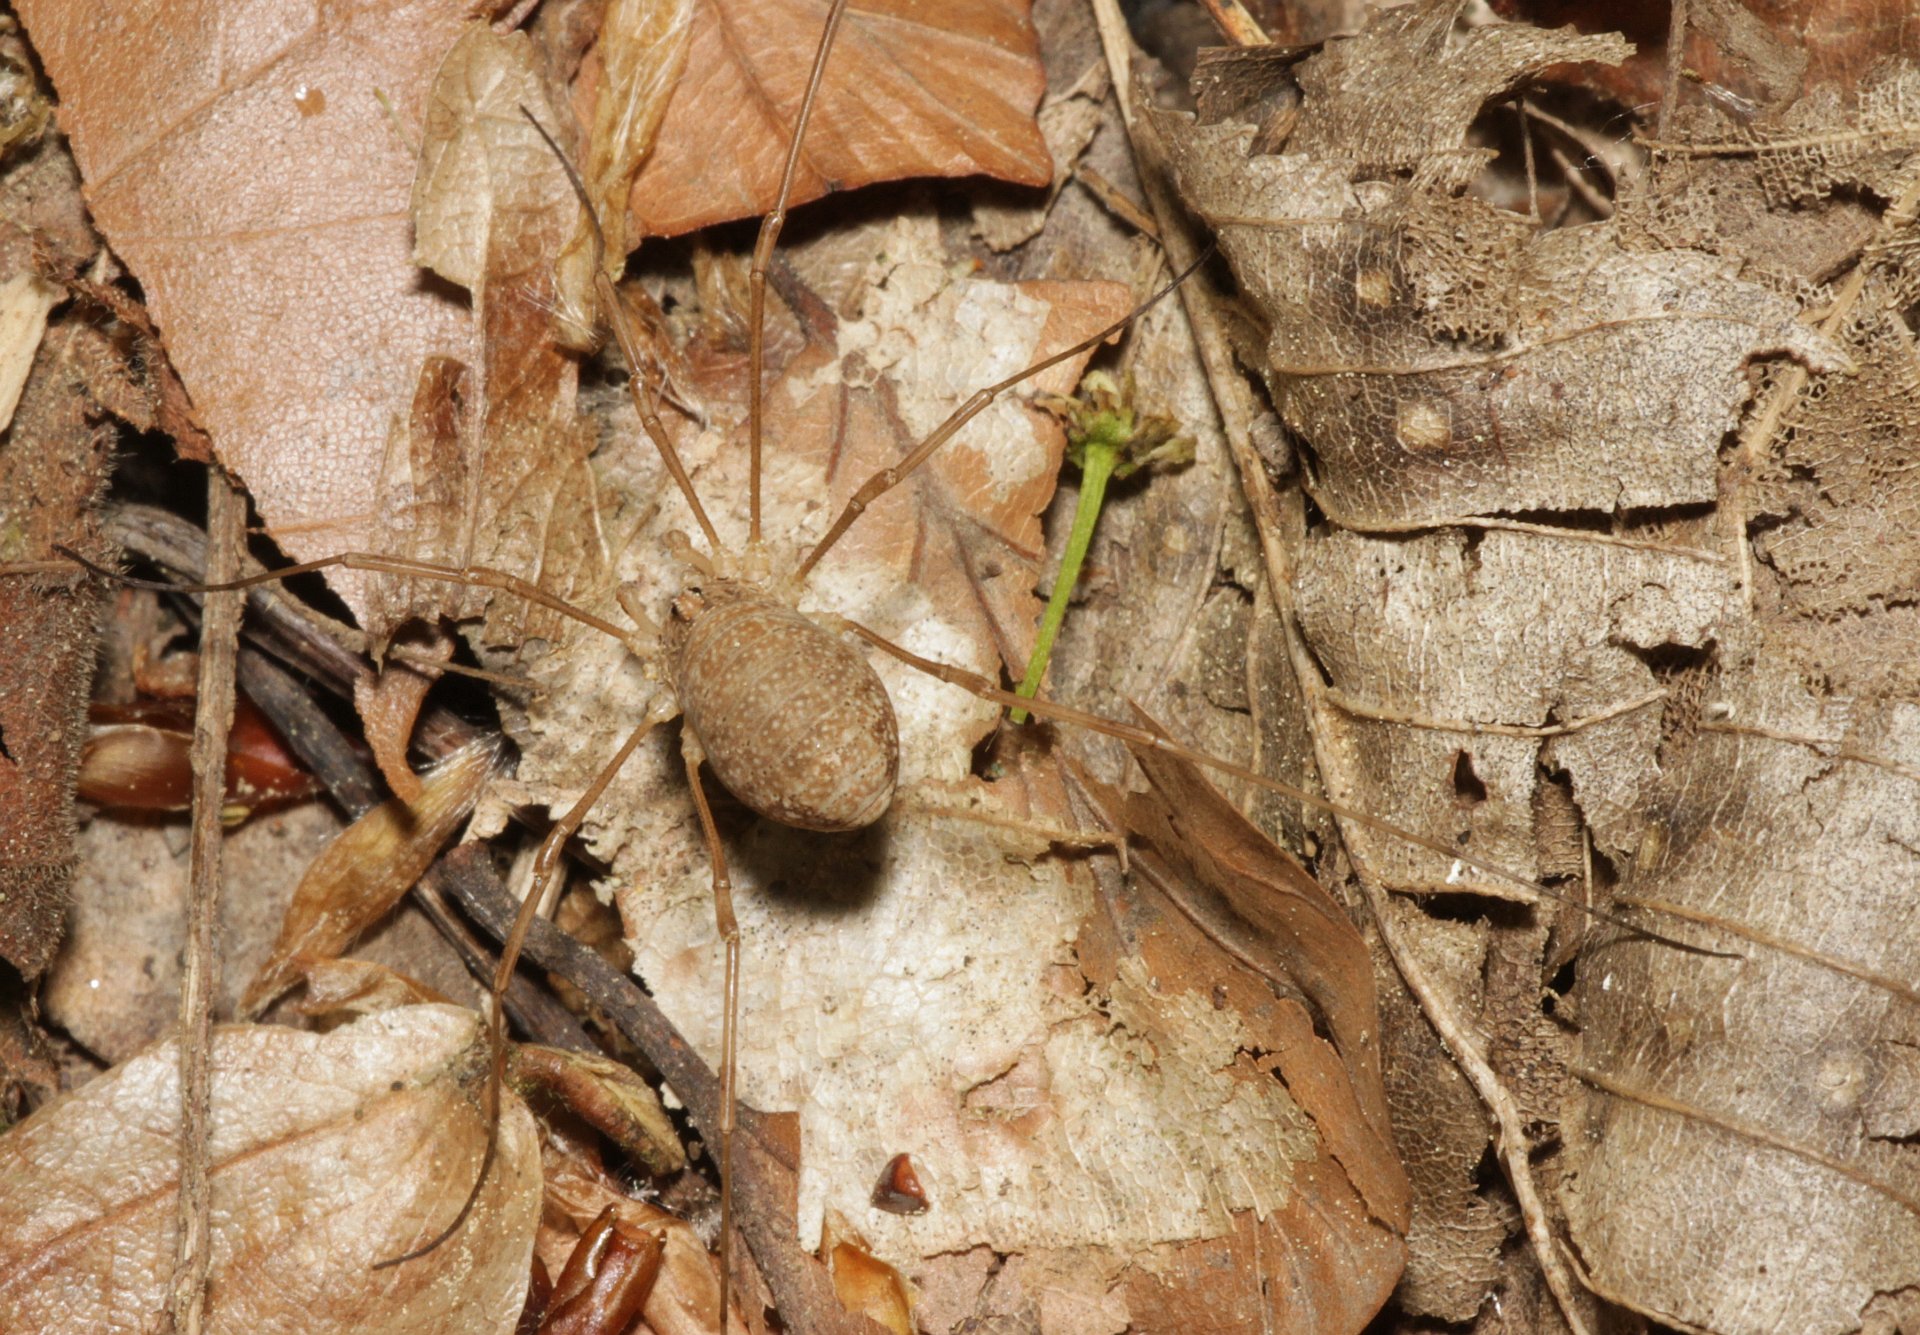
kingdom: Animalia
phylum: Arthropoda
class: Arachnida
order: Opiliones
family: Phalangiidae
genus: Rilaena
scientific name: Rilaena triangularis
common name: Spring harvestman
